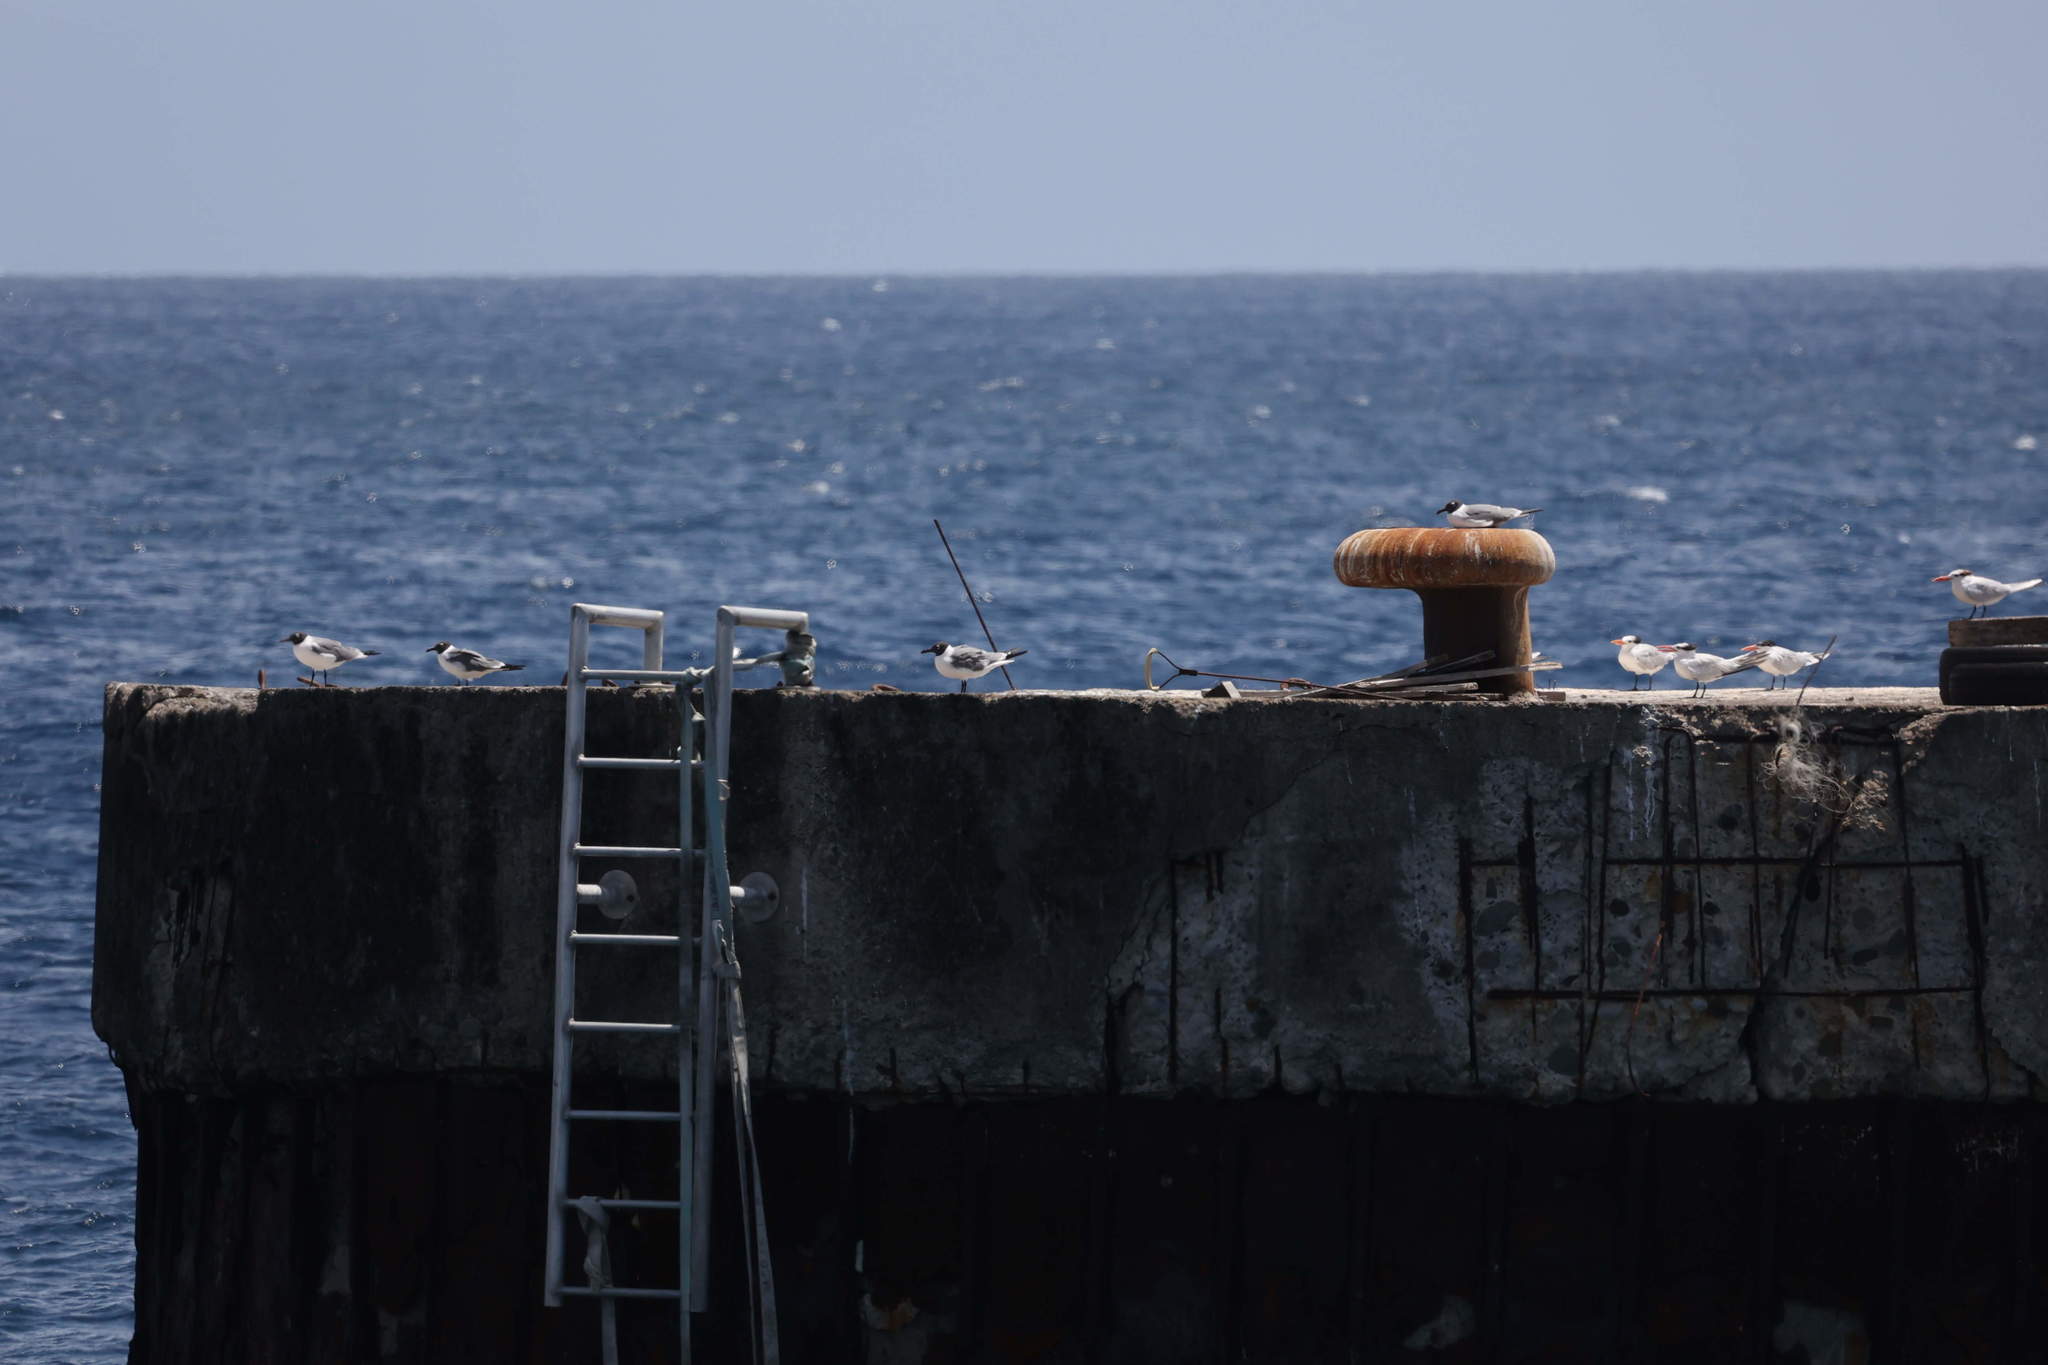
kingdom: Animalia
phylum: Chordata
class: Aves
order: Charadriiformes
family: Laridae
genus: Leucophaeus
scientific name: Leucophaeus atricilla
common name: Laughing gull
